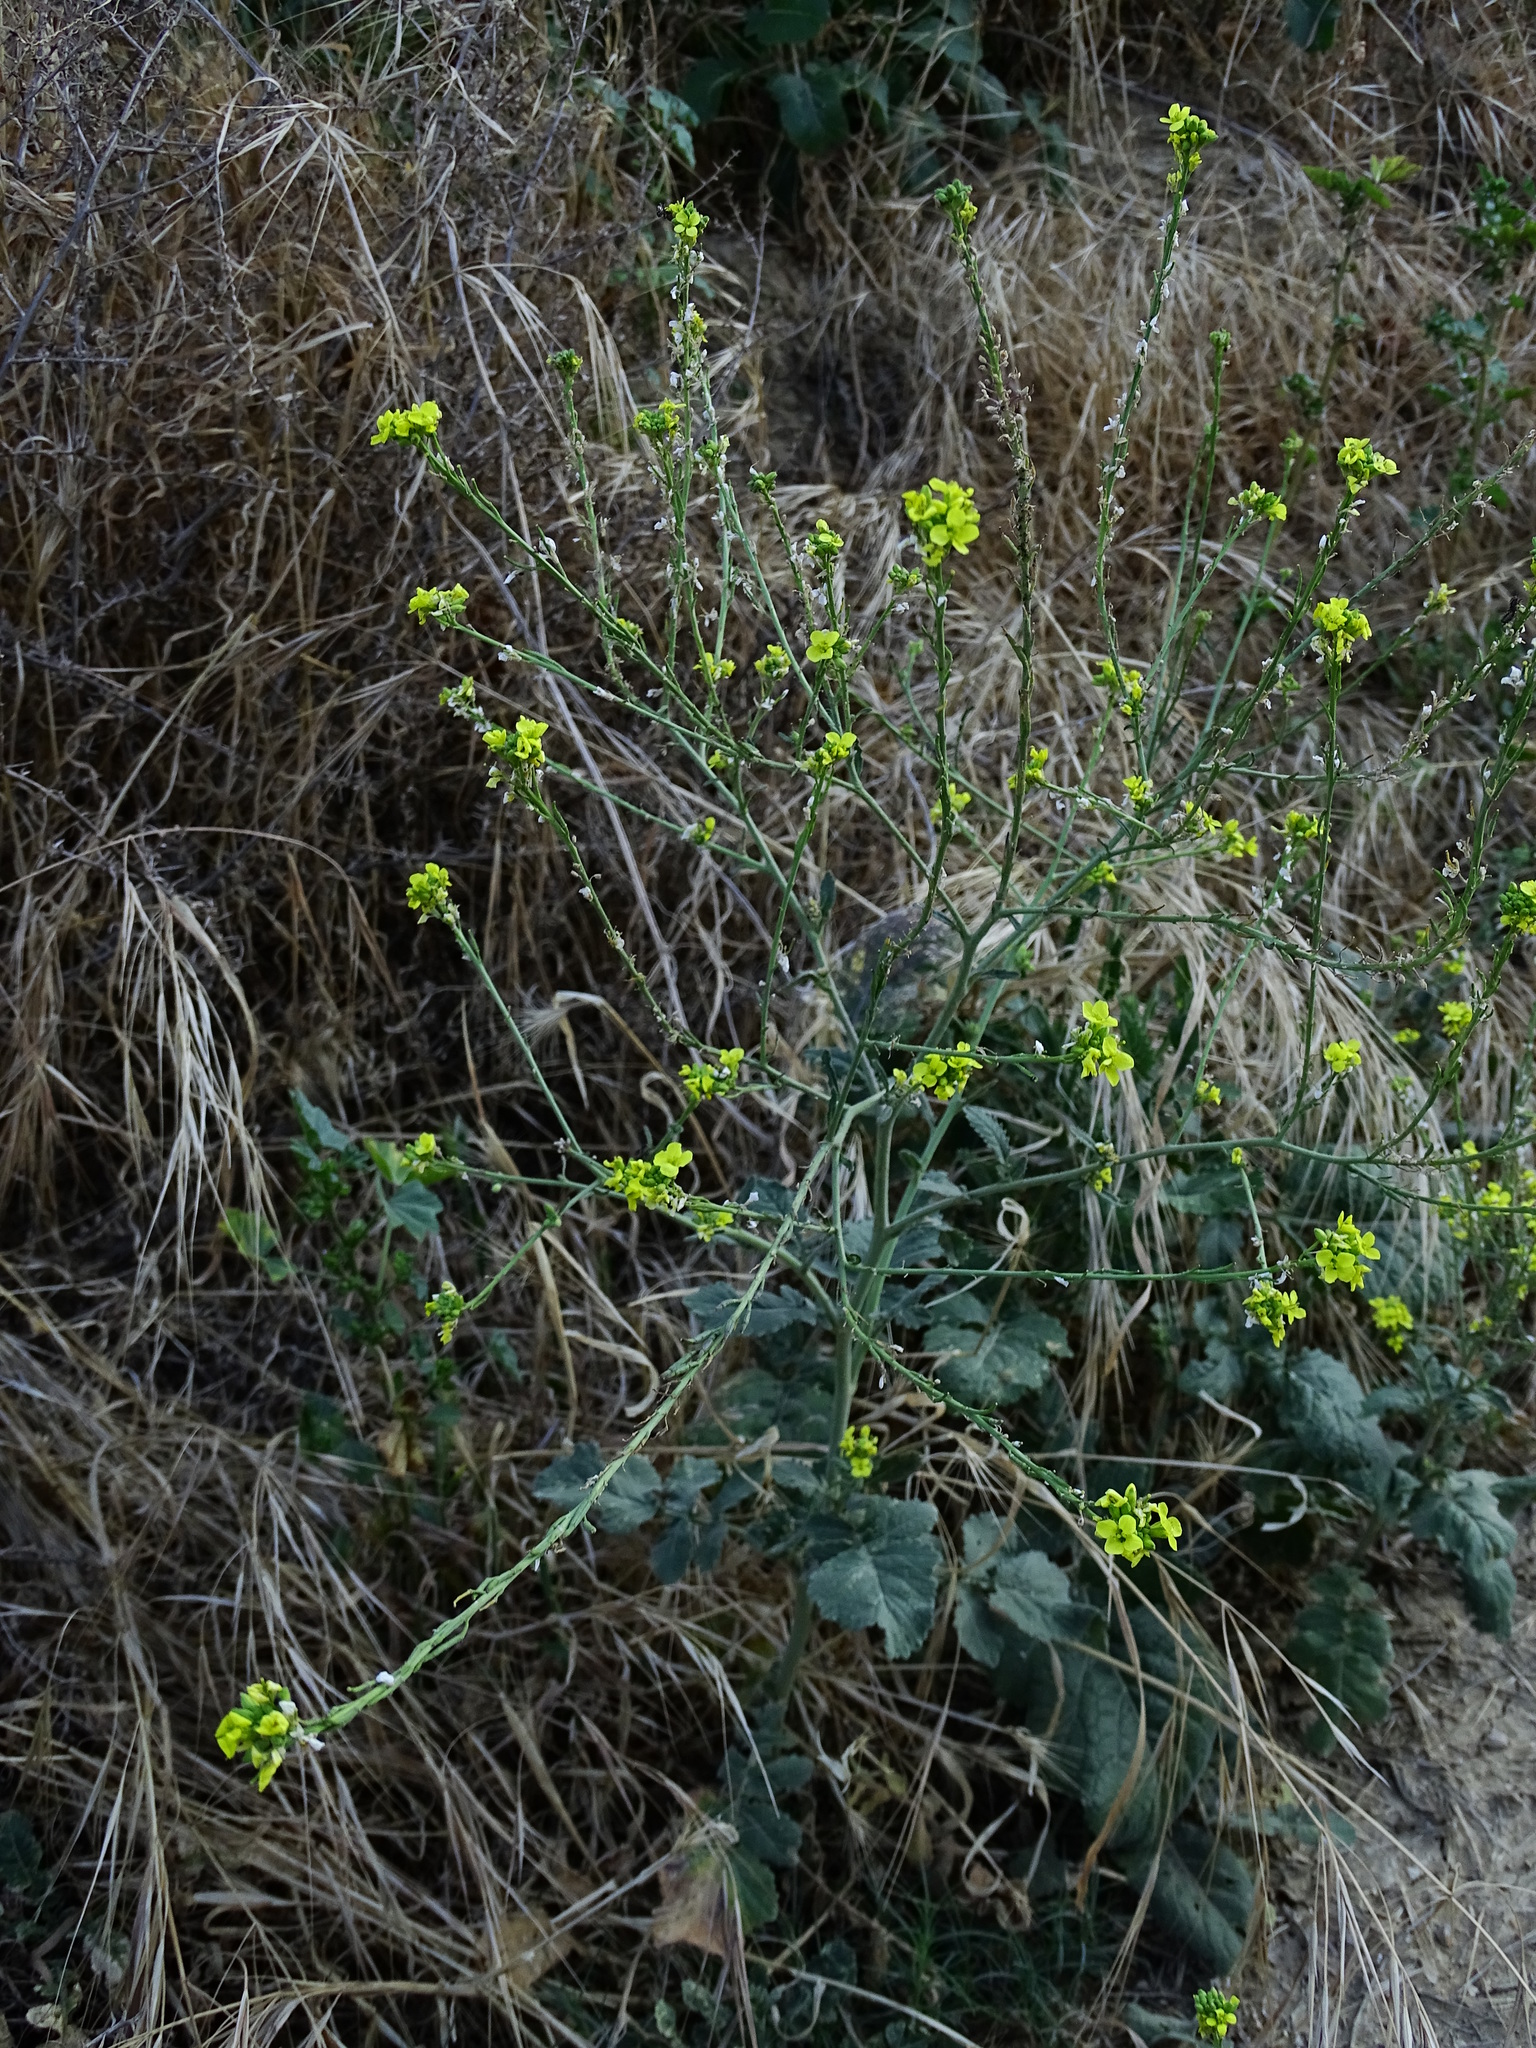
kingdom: Plantae
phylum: Tracheophyta
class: Magnoliopsida
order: Brassicales
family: Brassicaceae
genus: Hirschfeldia
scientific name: Hirschfeldia incana
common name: Hoary mustard
